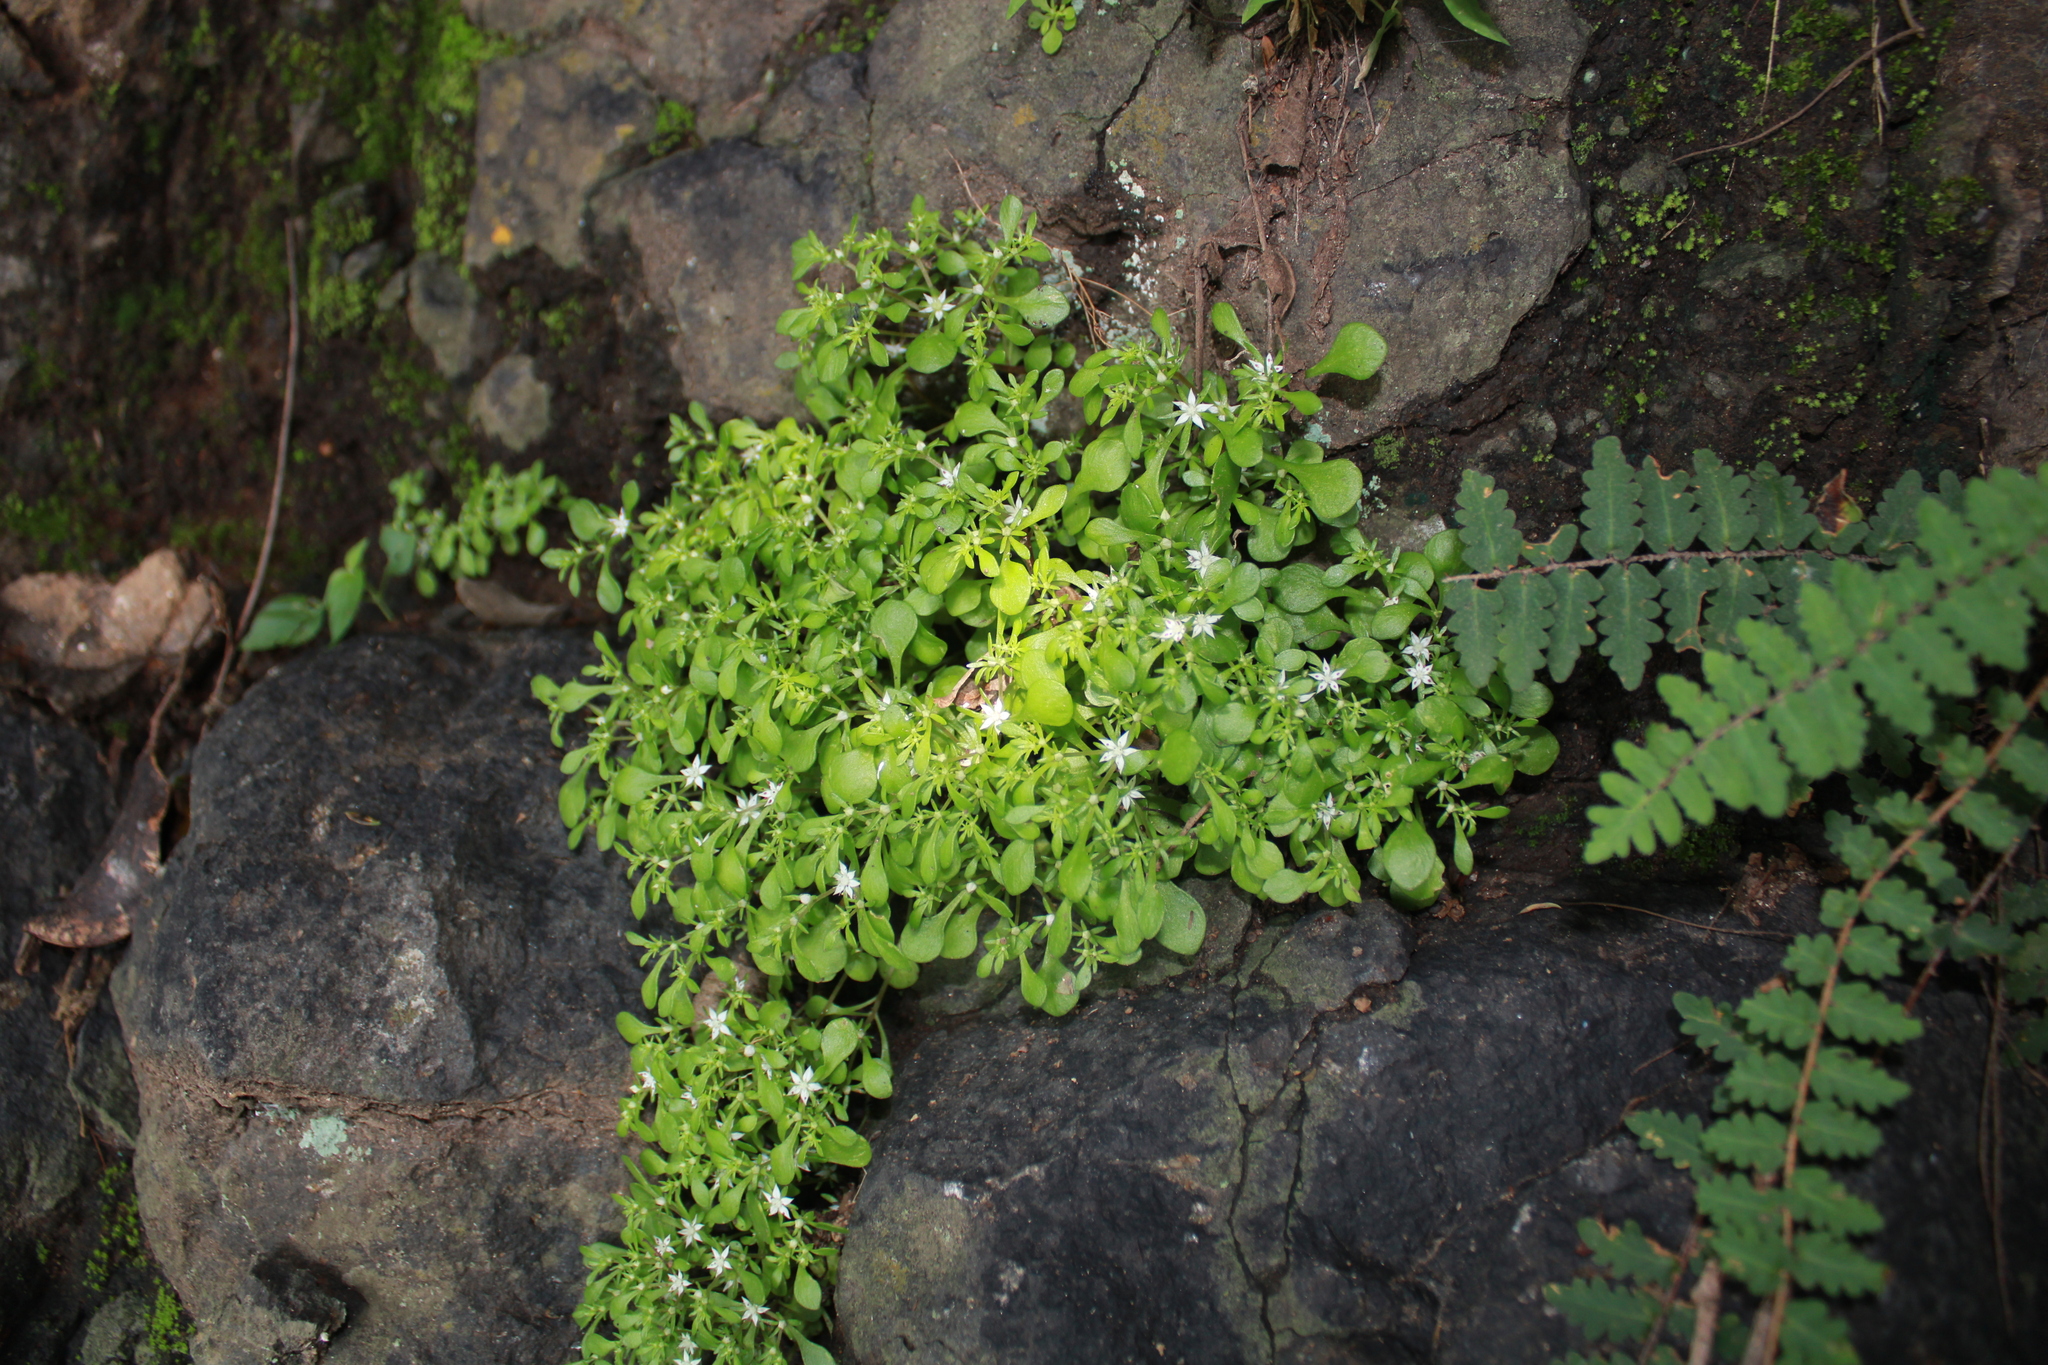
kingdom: Plantae
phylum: Tracheophyta
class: Magnoliopsida
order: Saxifragales
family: Crassulaceae
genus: Sedum
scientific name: Sedum jaliscanum
